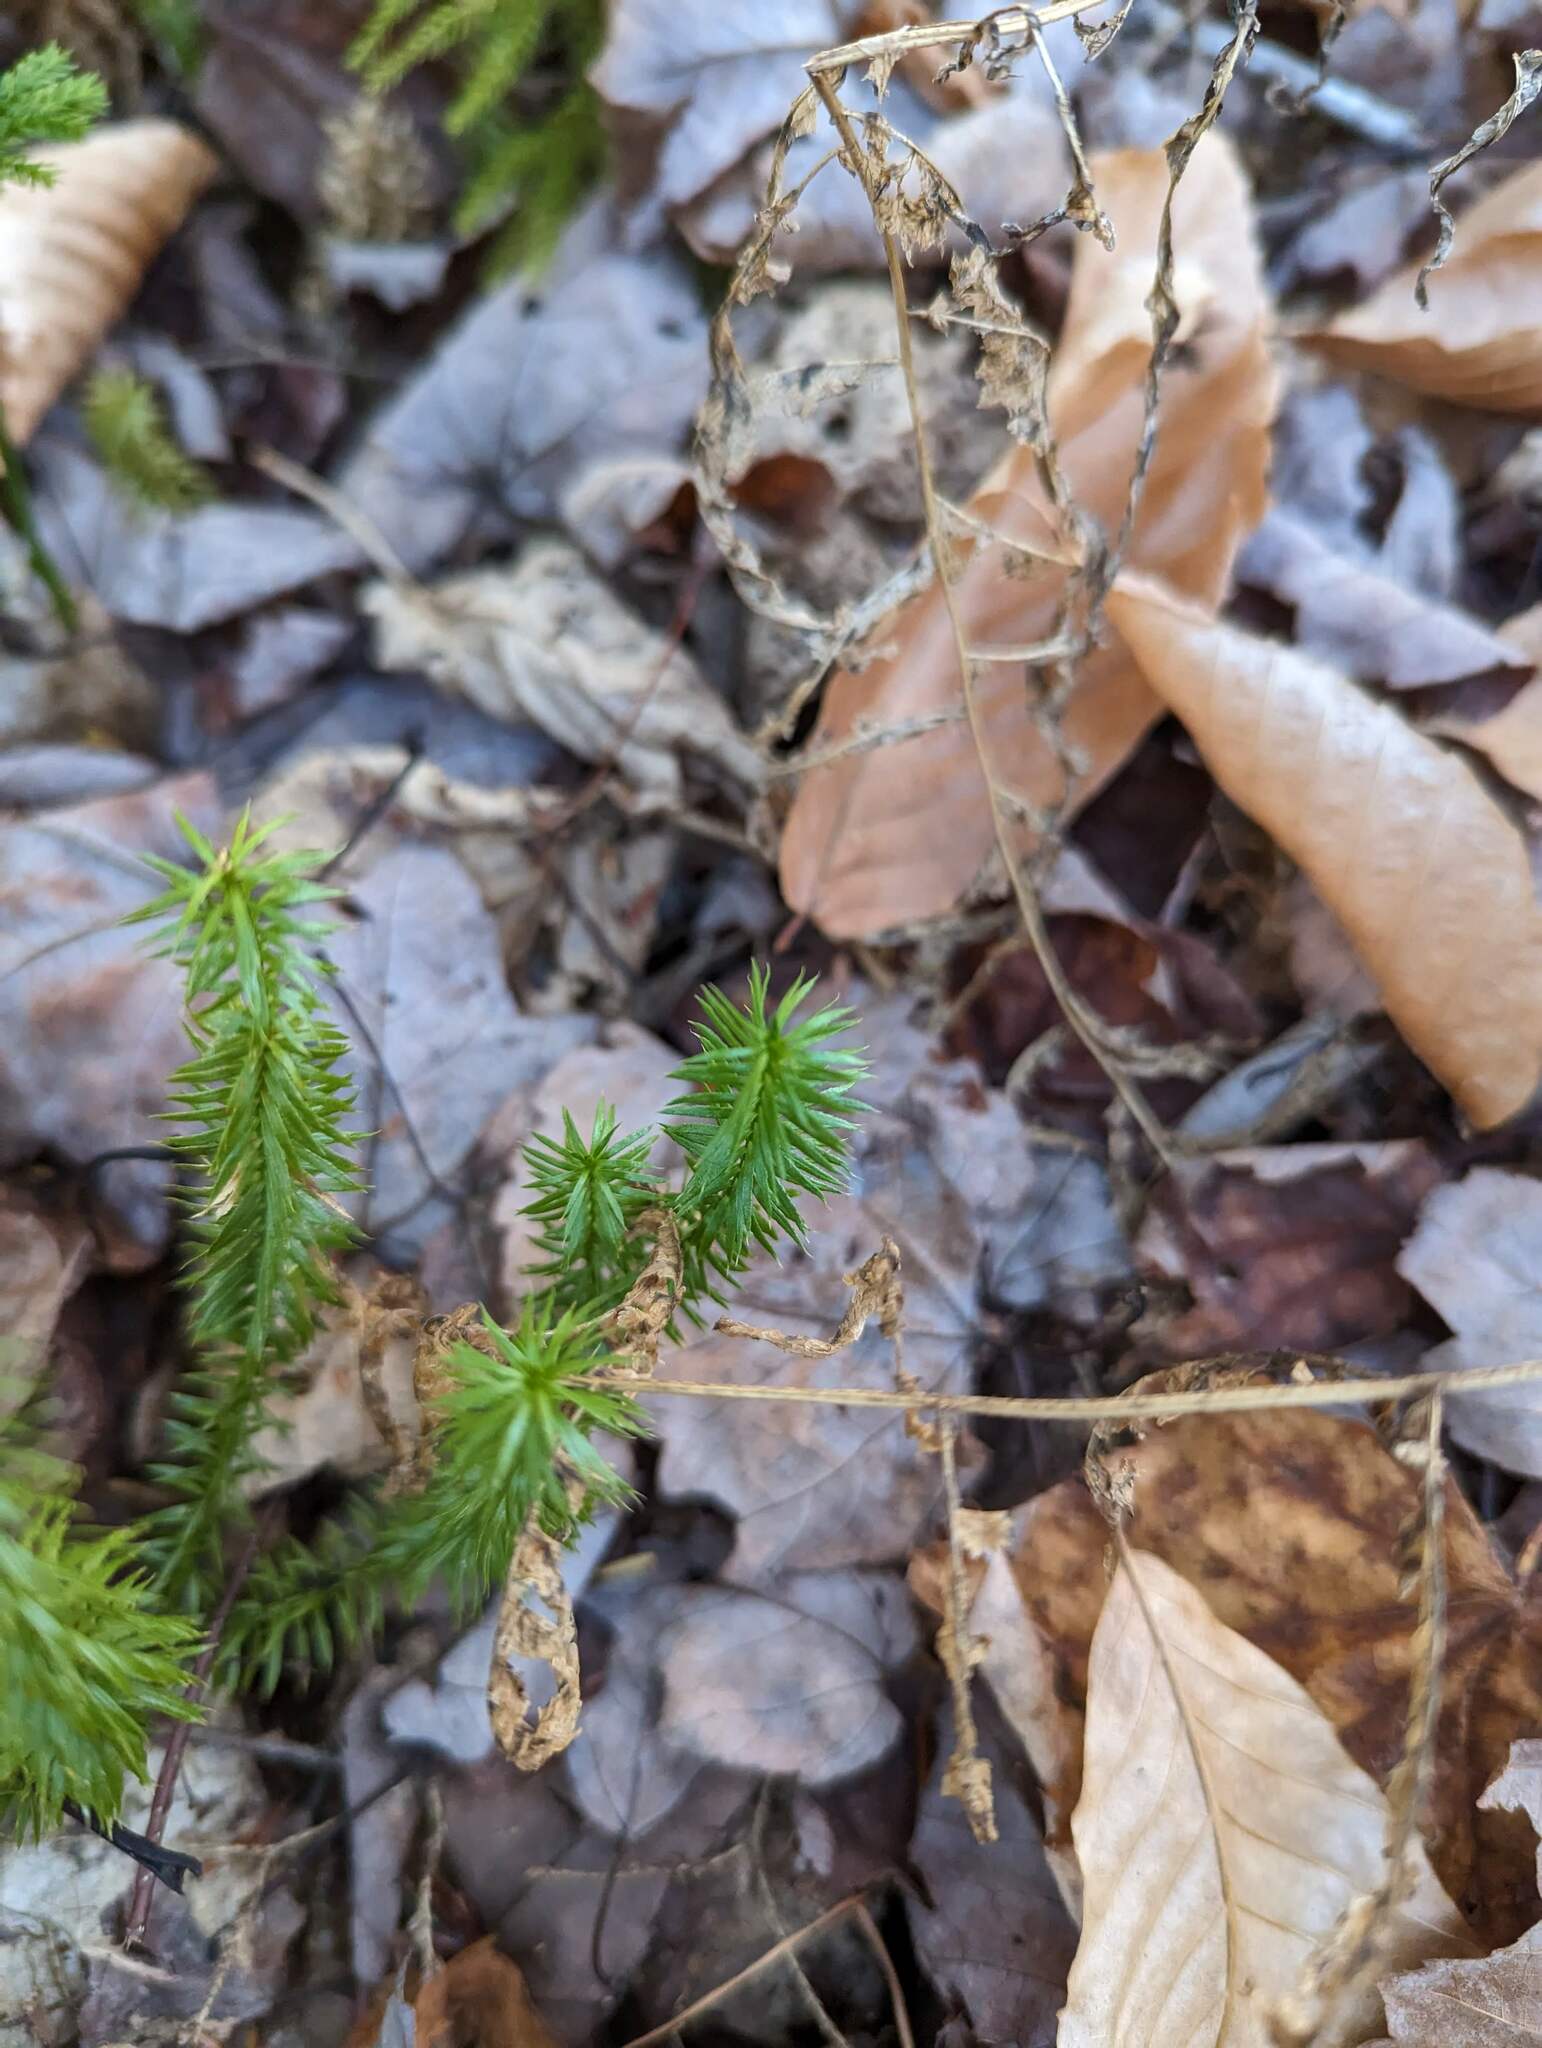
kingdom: Plantae
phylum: Tracheophyta
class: Lycopodiopsida
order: Lycopodiales
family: Lycopodiaceae
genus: Spinulum
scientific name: Spinulum annotinum
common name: Interrupted club-moss
